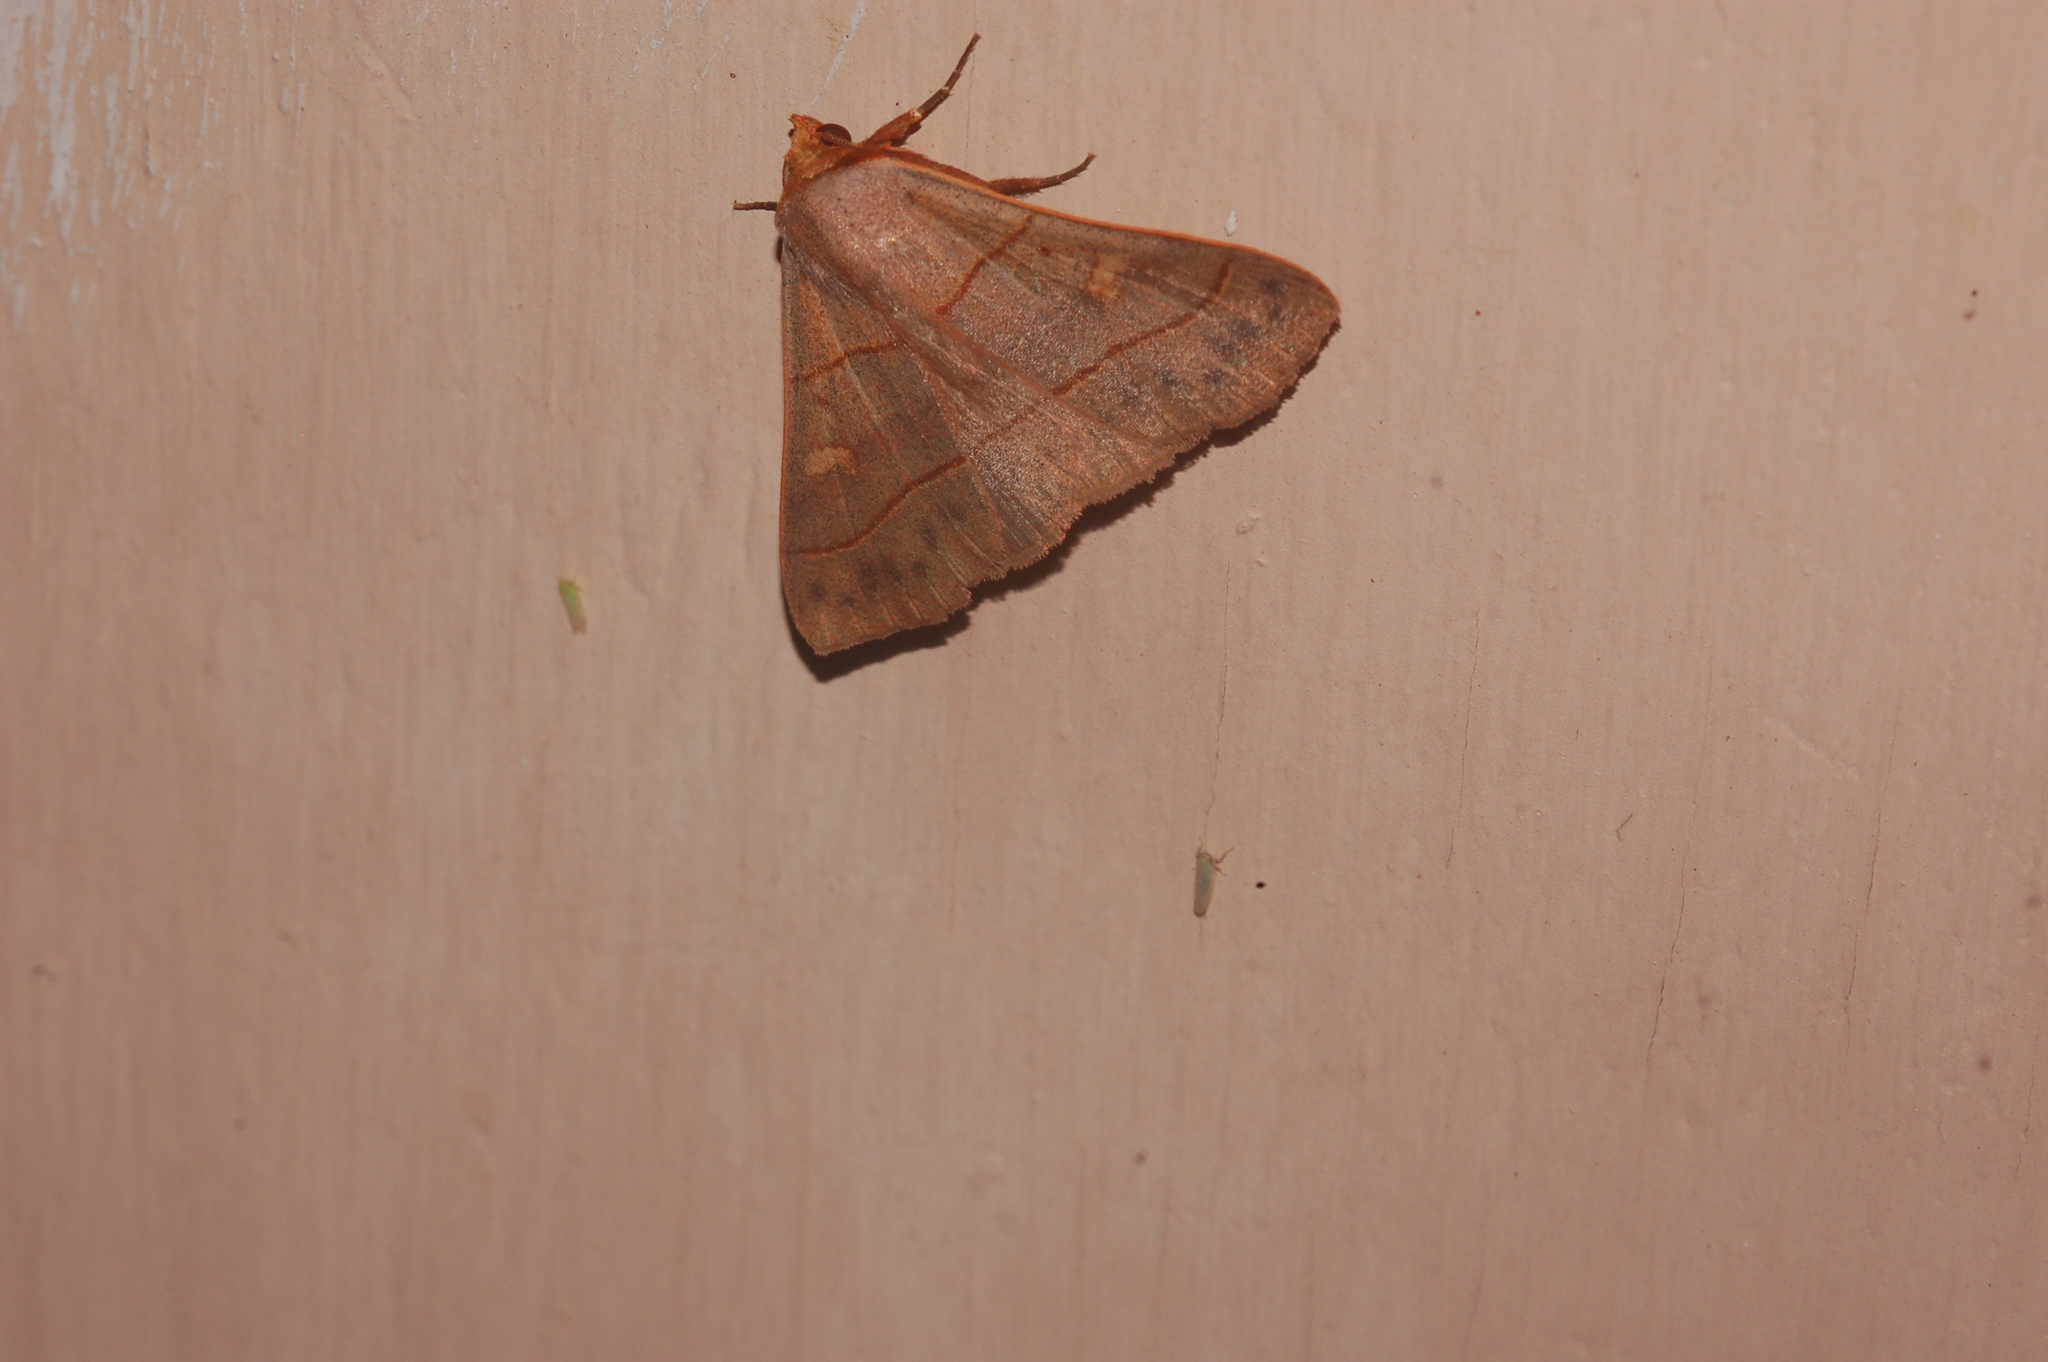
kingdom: Animalia
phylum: Arthropoda
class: Insecta
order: Lepidoptera
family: Erebidae
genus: Panopoda
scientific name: Panopoda rufimargo
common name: Red-lined panopoda moth
